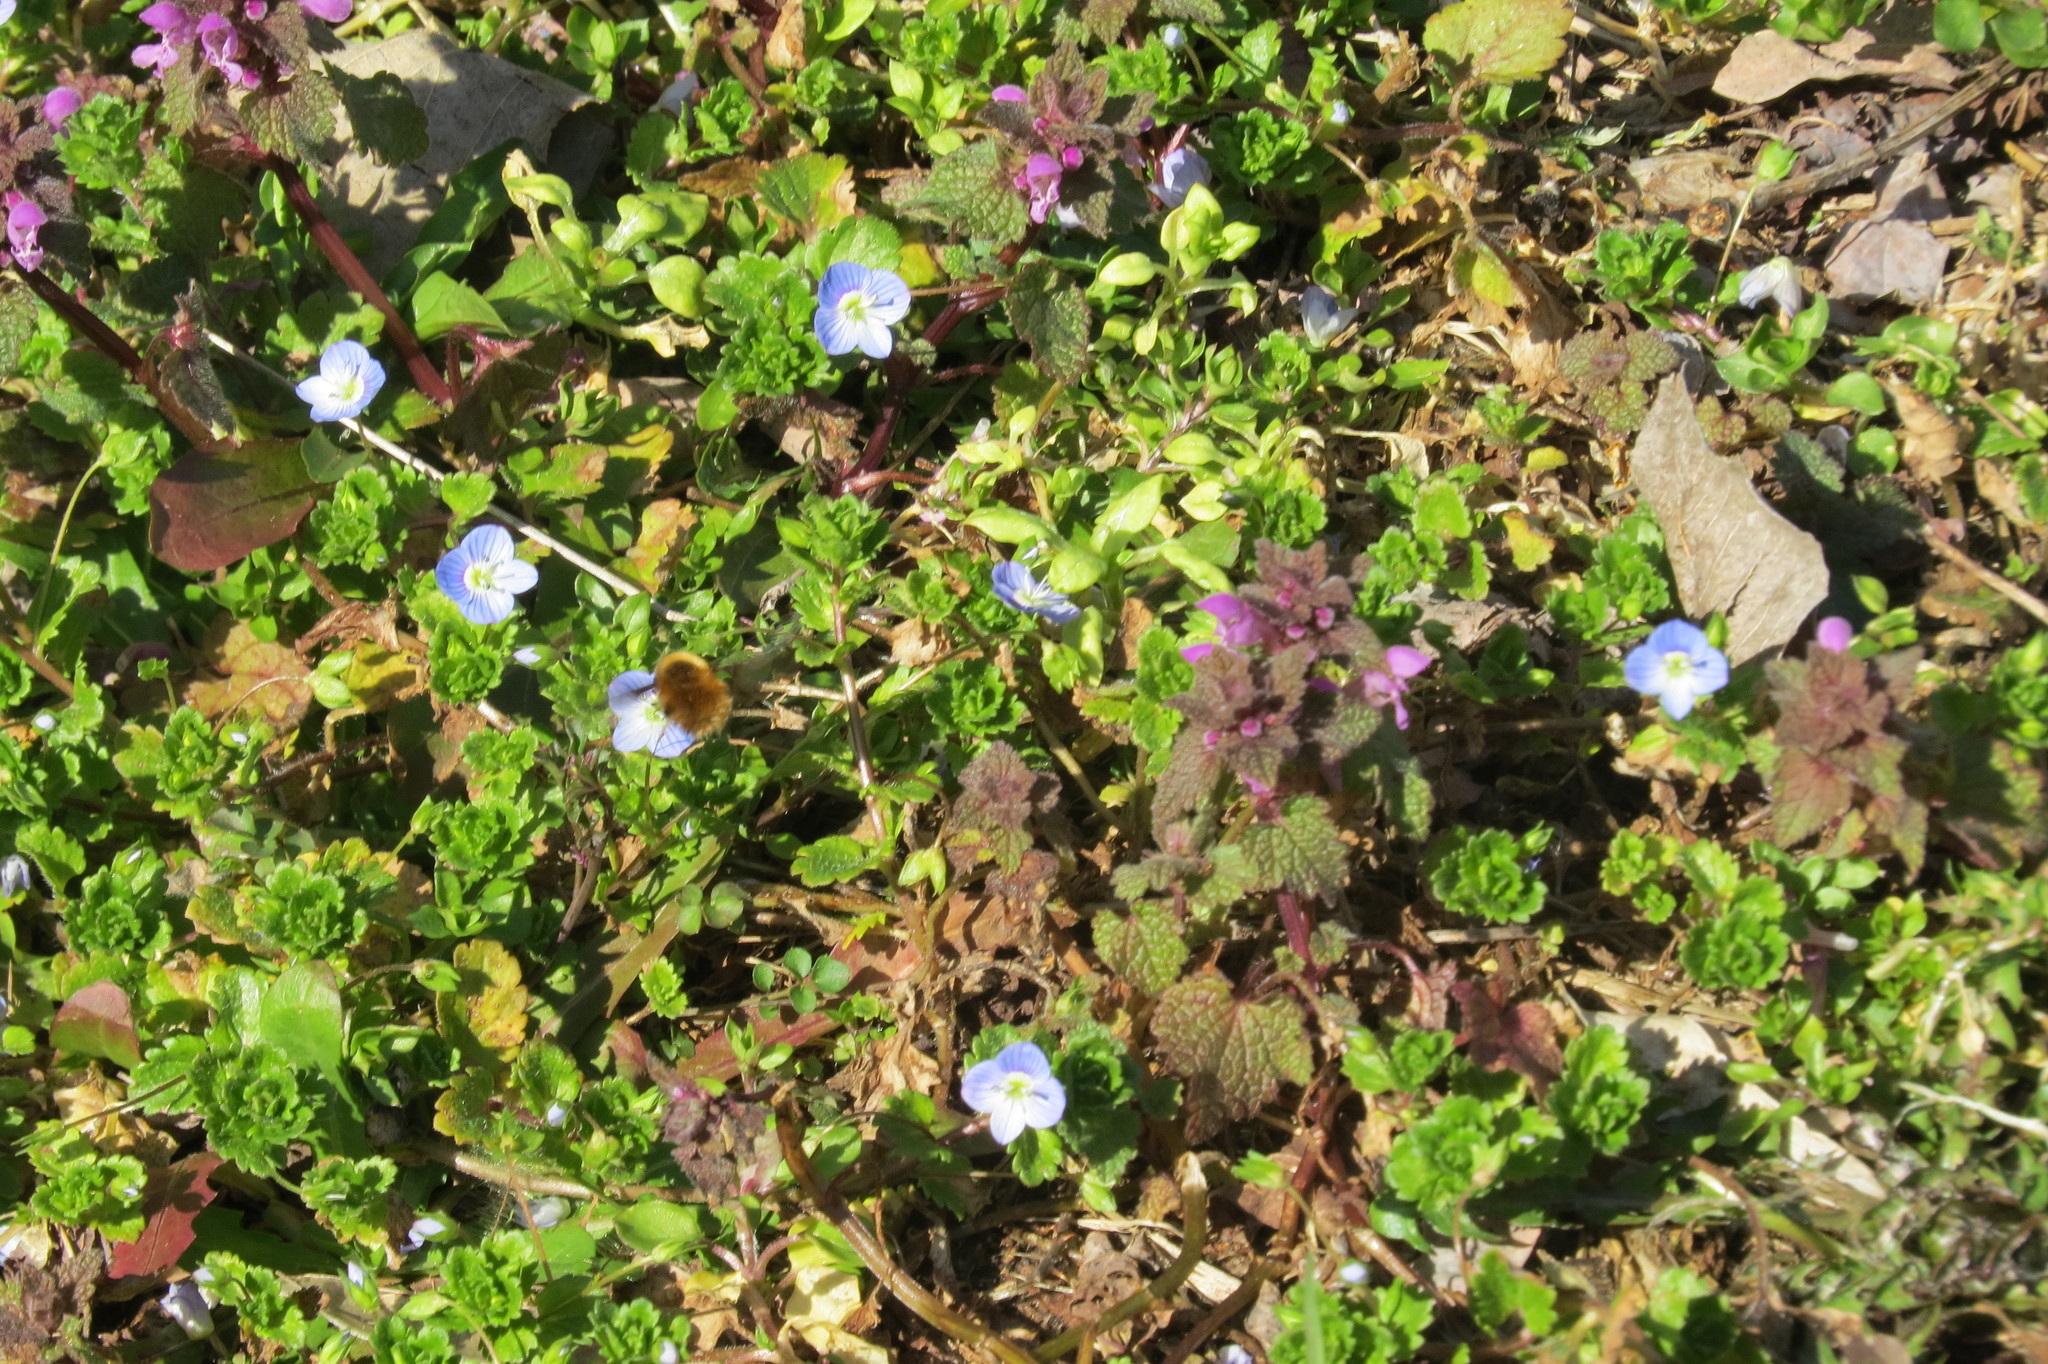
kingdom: Animalia
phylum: Arthropoda
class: Insecta
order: Diptera
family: Bombyliidae
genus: Bombylius
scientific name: Bombylius major
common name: Bee fly
